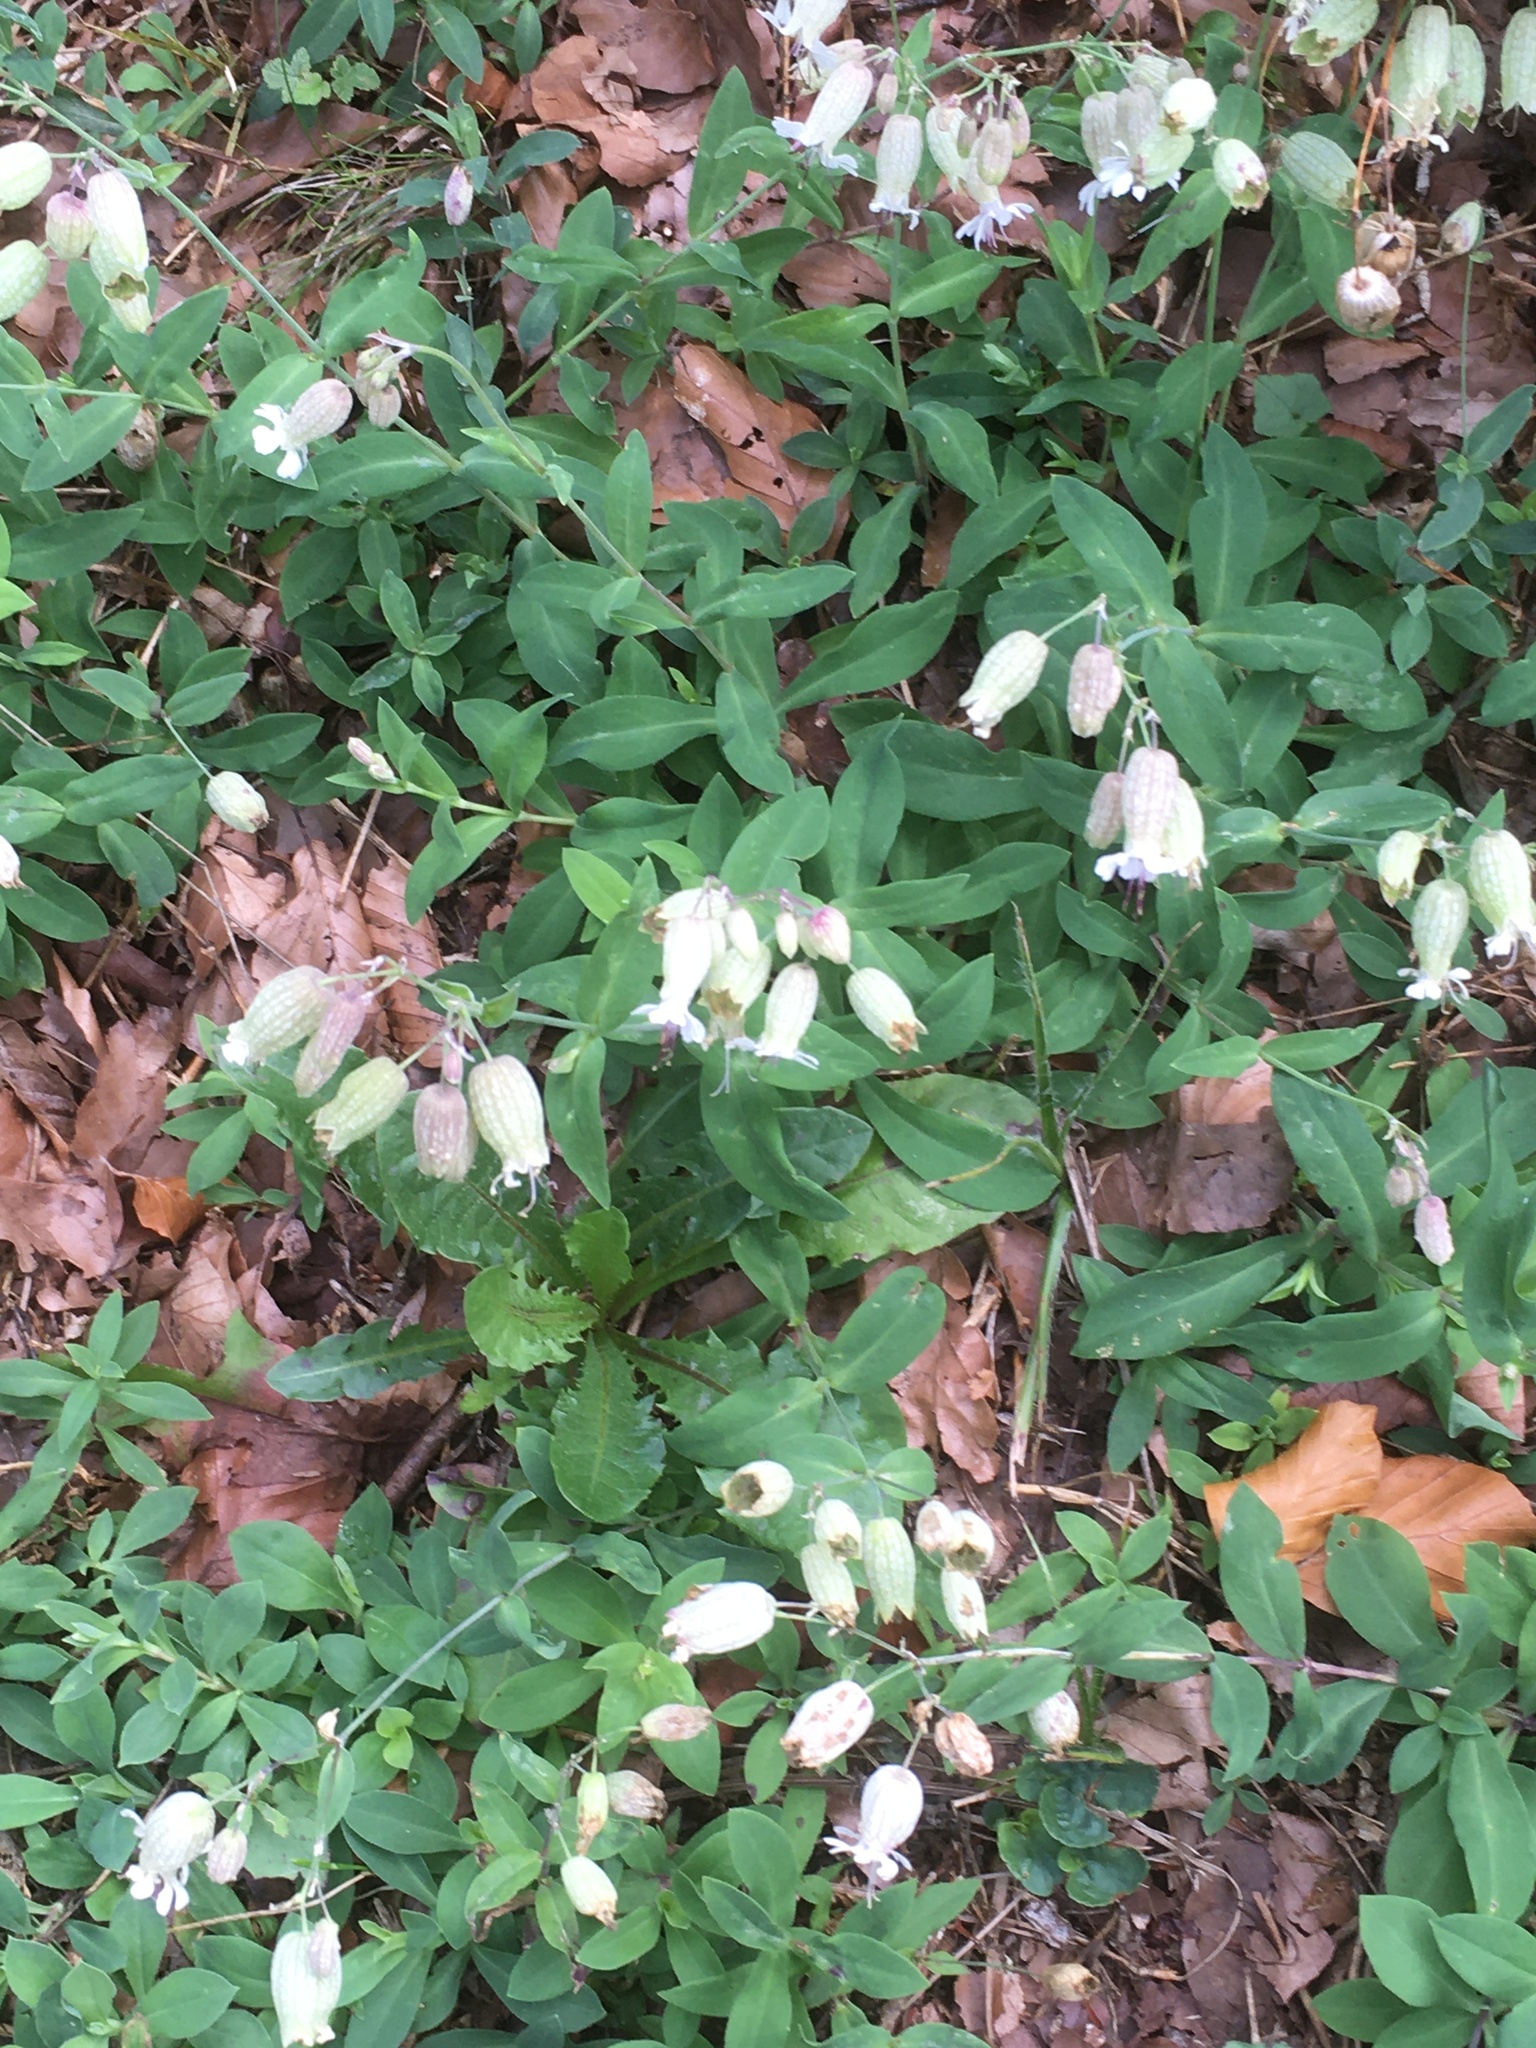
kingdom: Plantae
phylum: Tracheophyta
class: Magnoliopsida
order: Caryophyllales
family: Caryophyllaceae
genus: Silene
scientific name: Silene vulgaris
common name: Bladder campion
